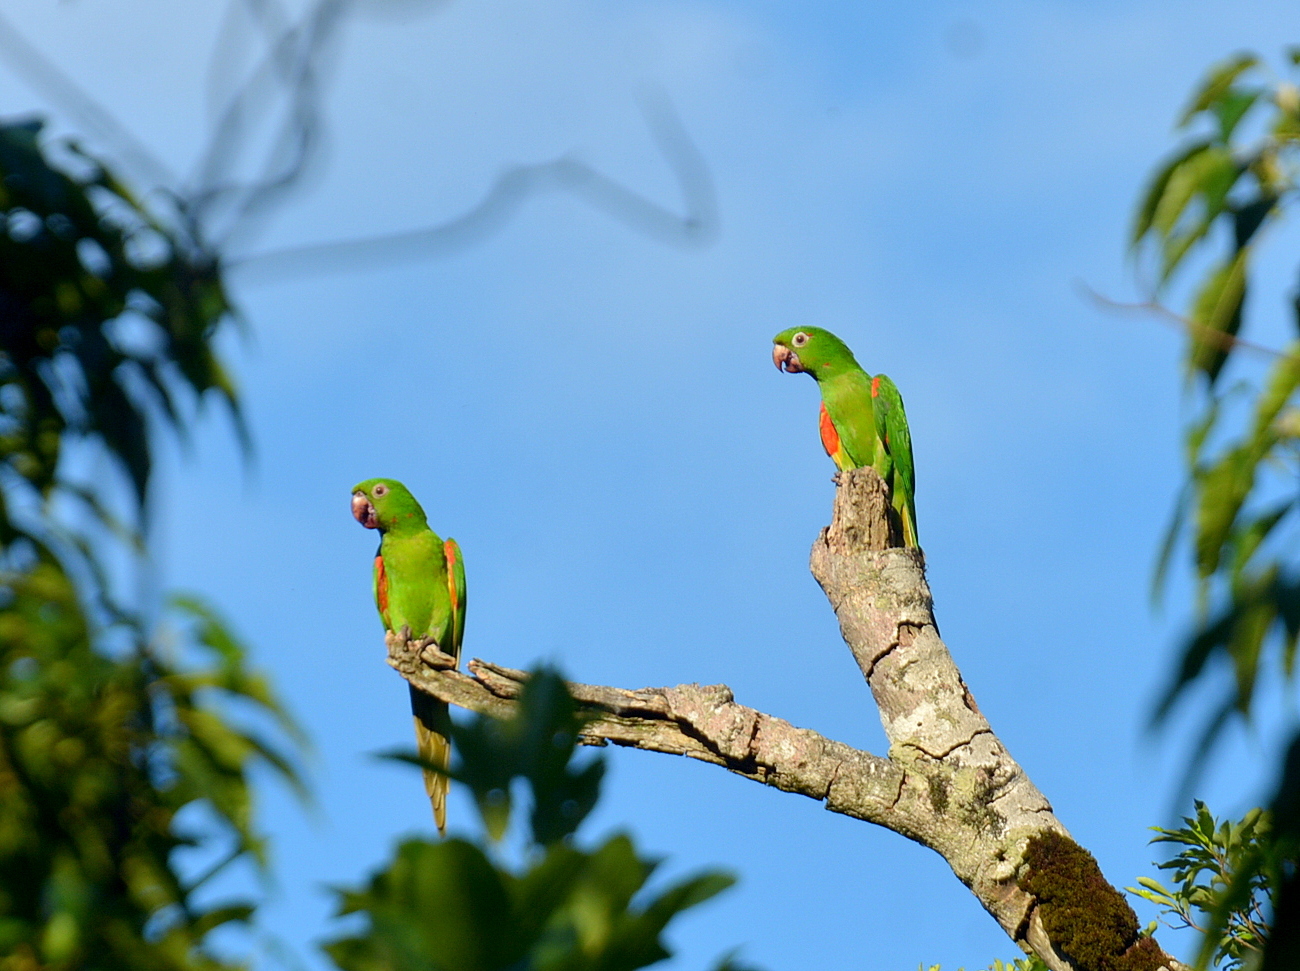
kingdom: Animalia
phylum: Chordata
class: Aves
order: Psittaciformes
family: Psittacidae
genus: Aratinga
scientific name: Aratinga leucophthalma
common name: White-eyed parakeet
